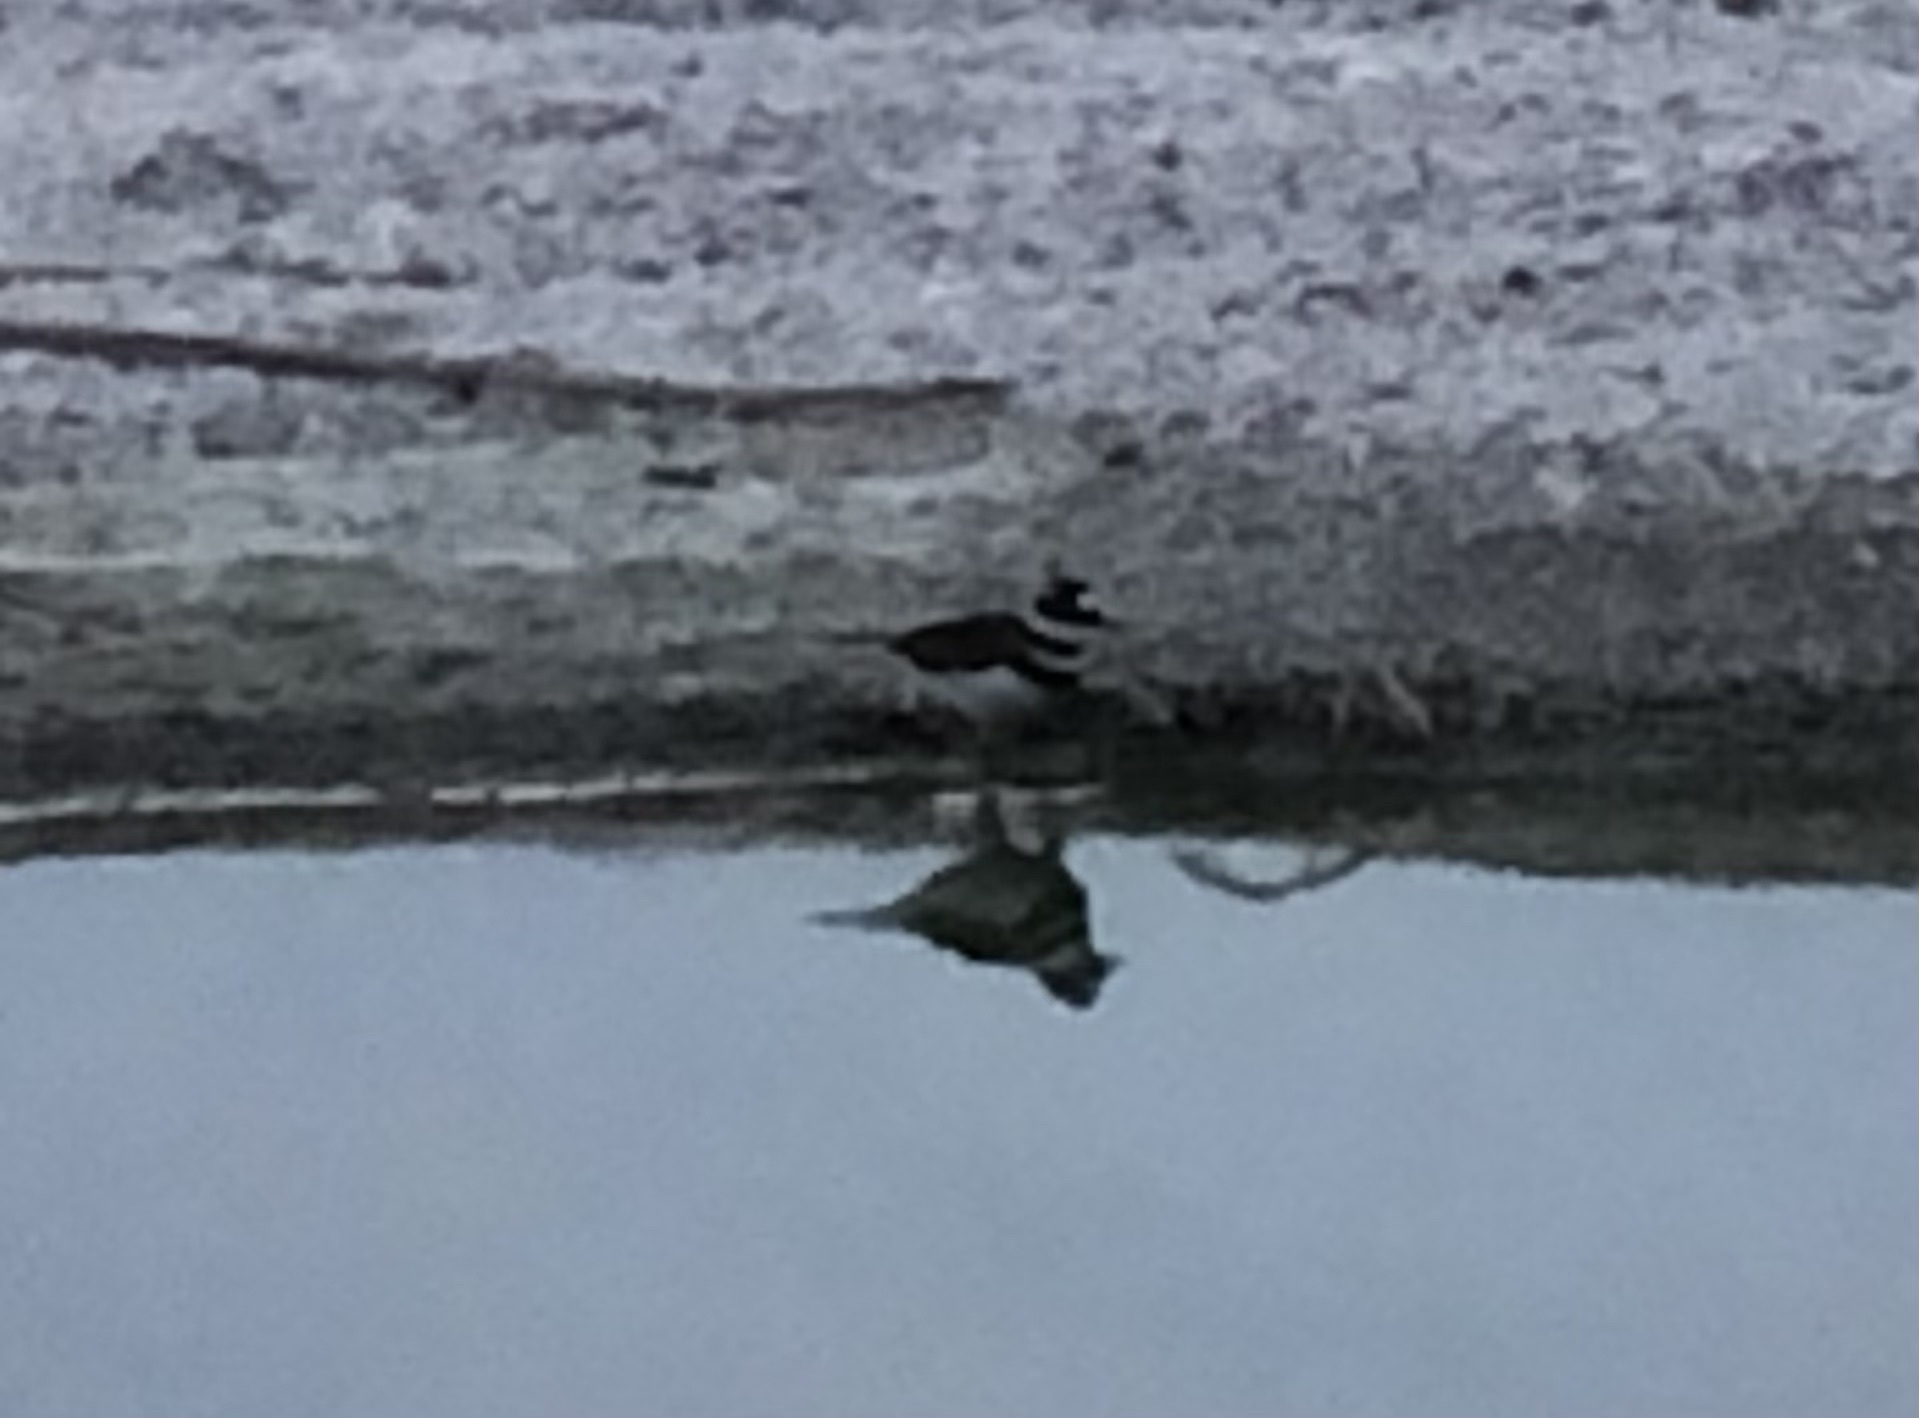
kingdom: Animalia
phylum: Chordata
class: Aves
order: Charadriiformes
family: Recurvirostridae
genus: Himantopus
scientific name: Himantopus mexicanus
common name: Black-necked stilt
